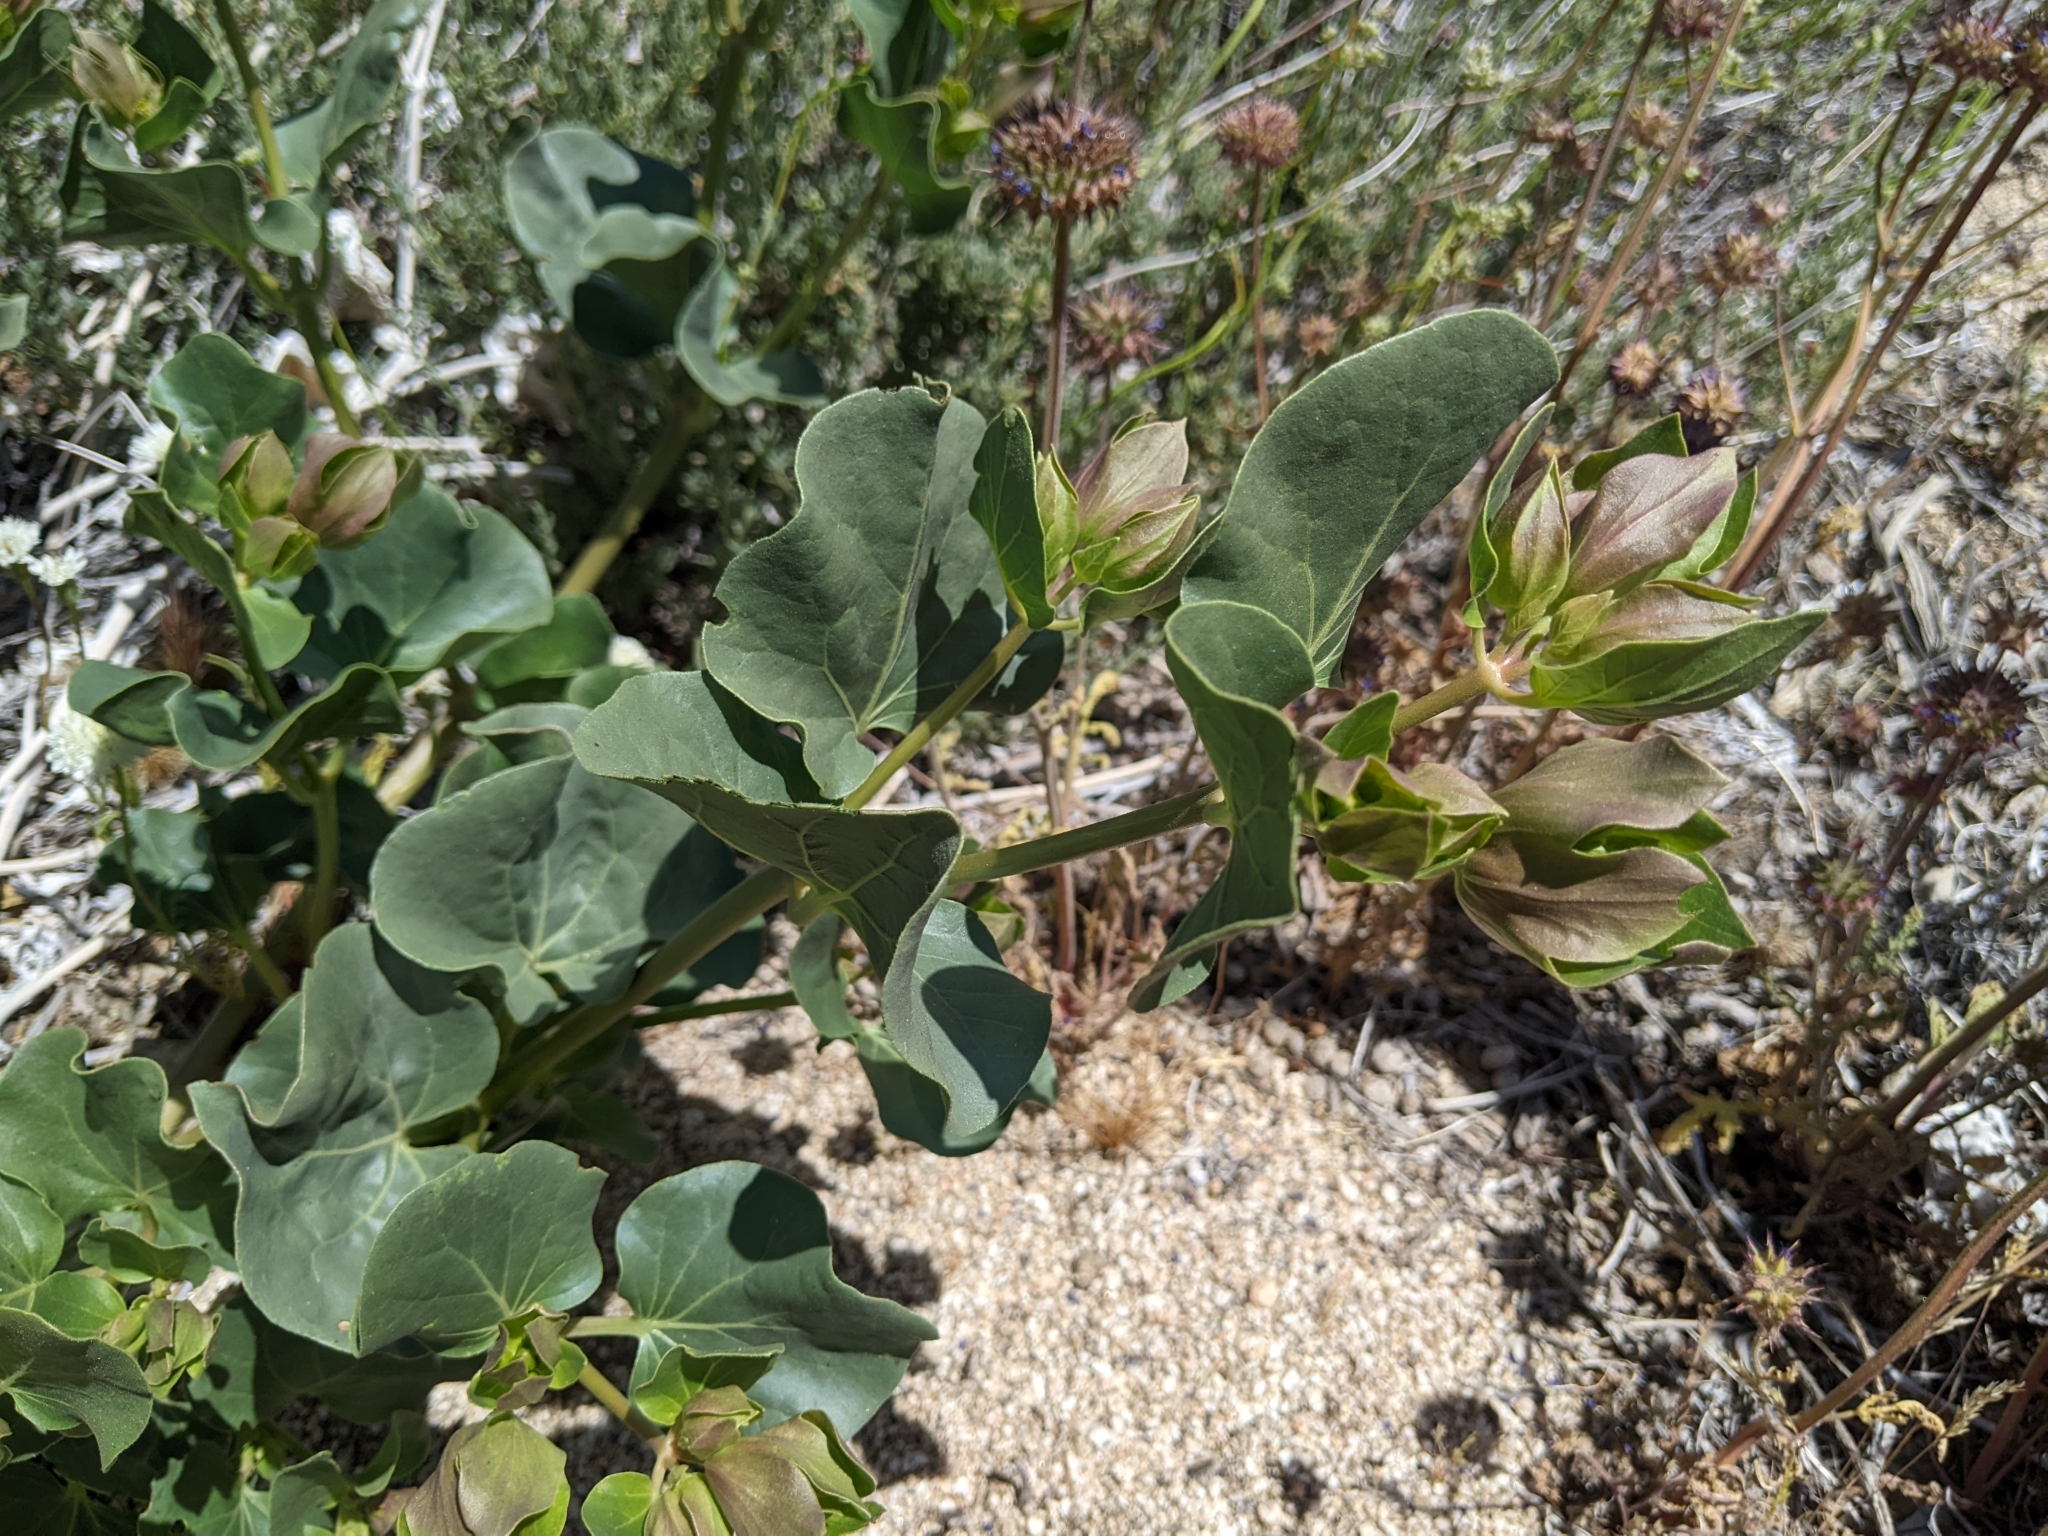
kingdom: Plantae
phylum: Tracheophyta
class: Magnoliopsida
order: Caryophyllales
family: Nyctaginaceae
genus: Mirabilis
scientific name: Mirabilis multiflora
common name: Froebel's four-o'clock
